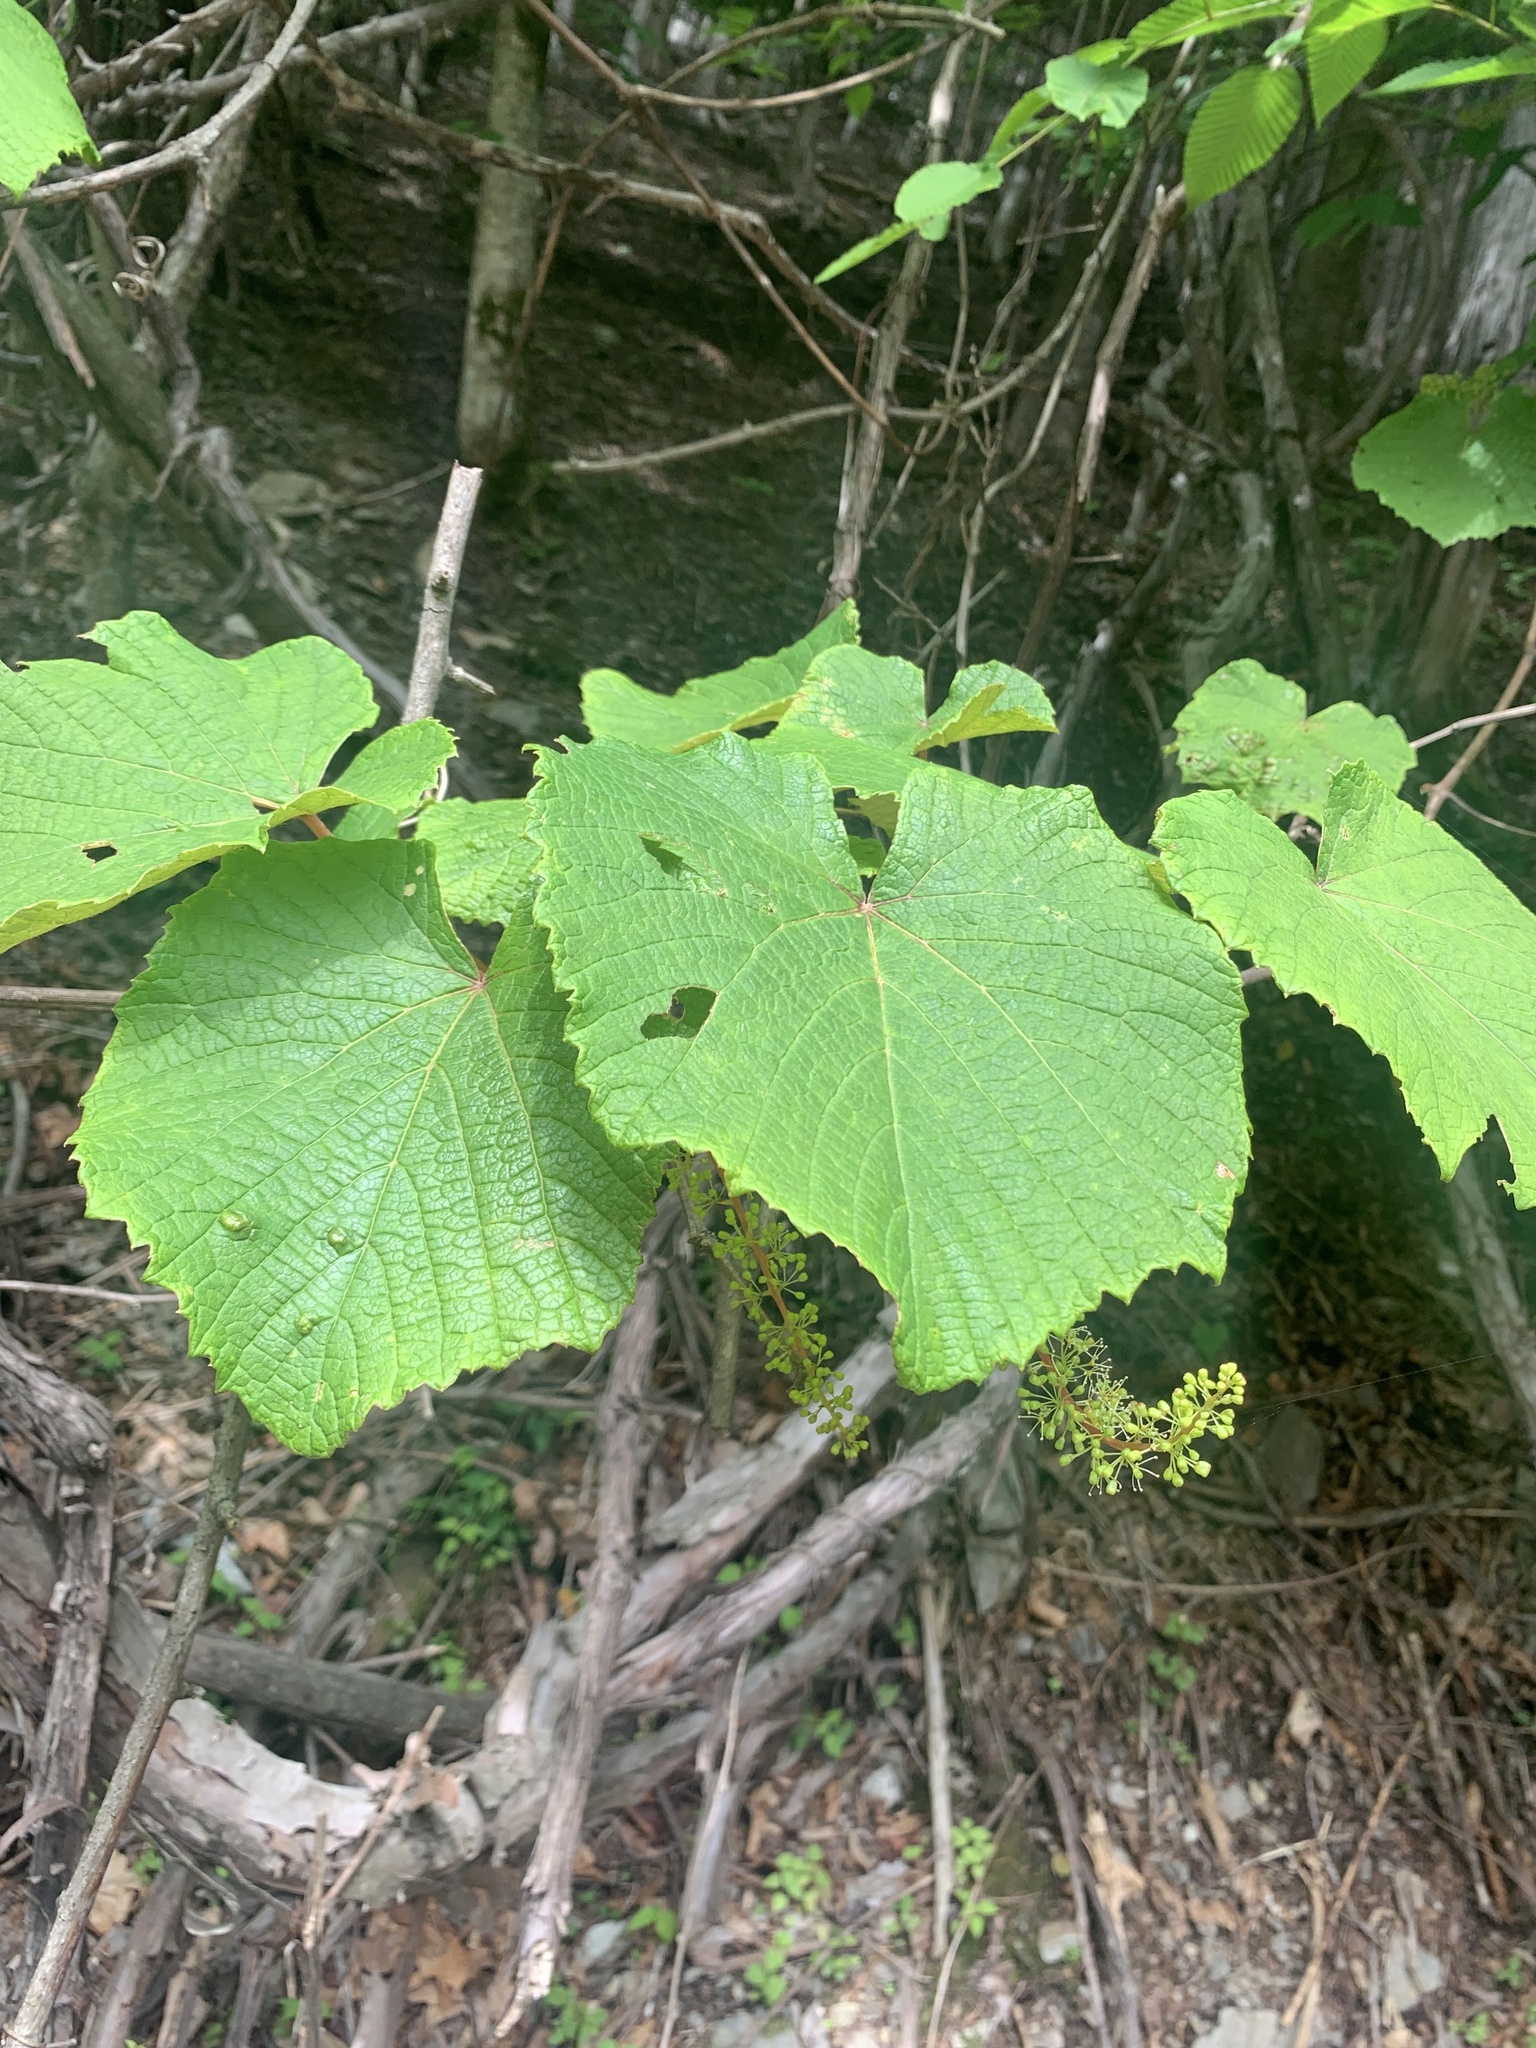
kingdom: Plantae
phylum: Tracheophyta
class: Magnoliopsida
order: Vitales
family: Vitaceae
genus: Vitis
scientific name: Vitis coignetiae
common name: Crimson gloryvine
